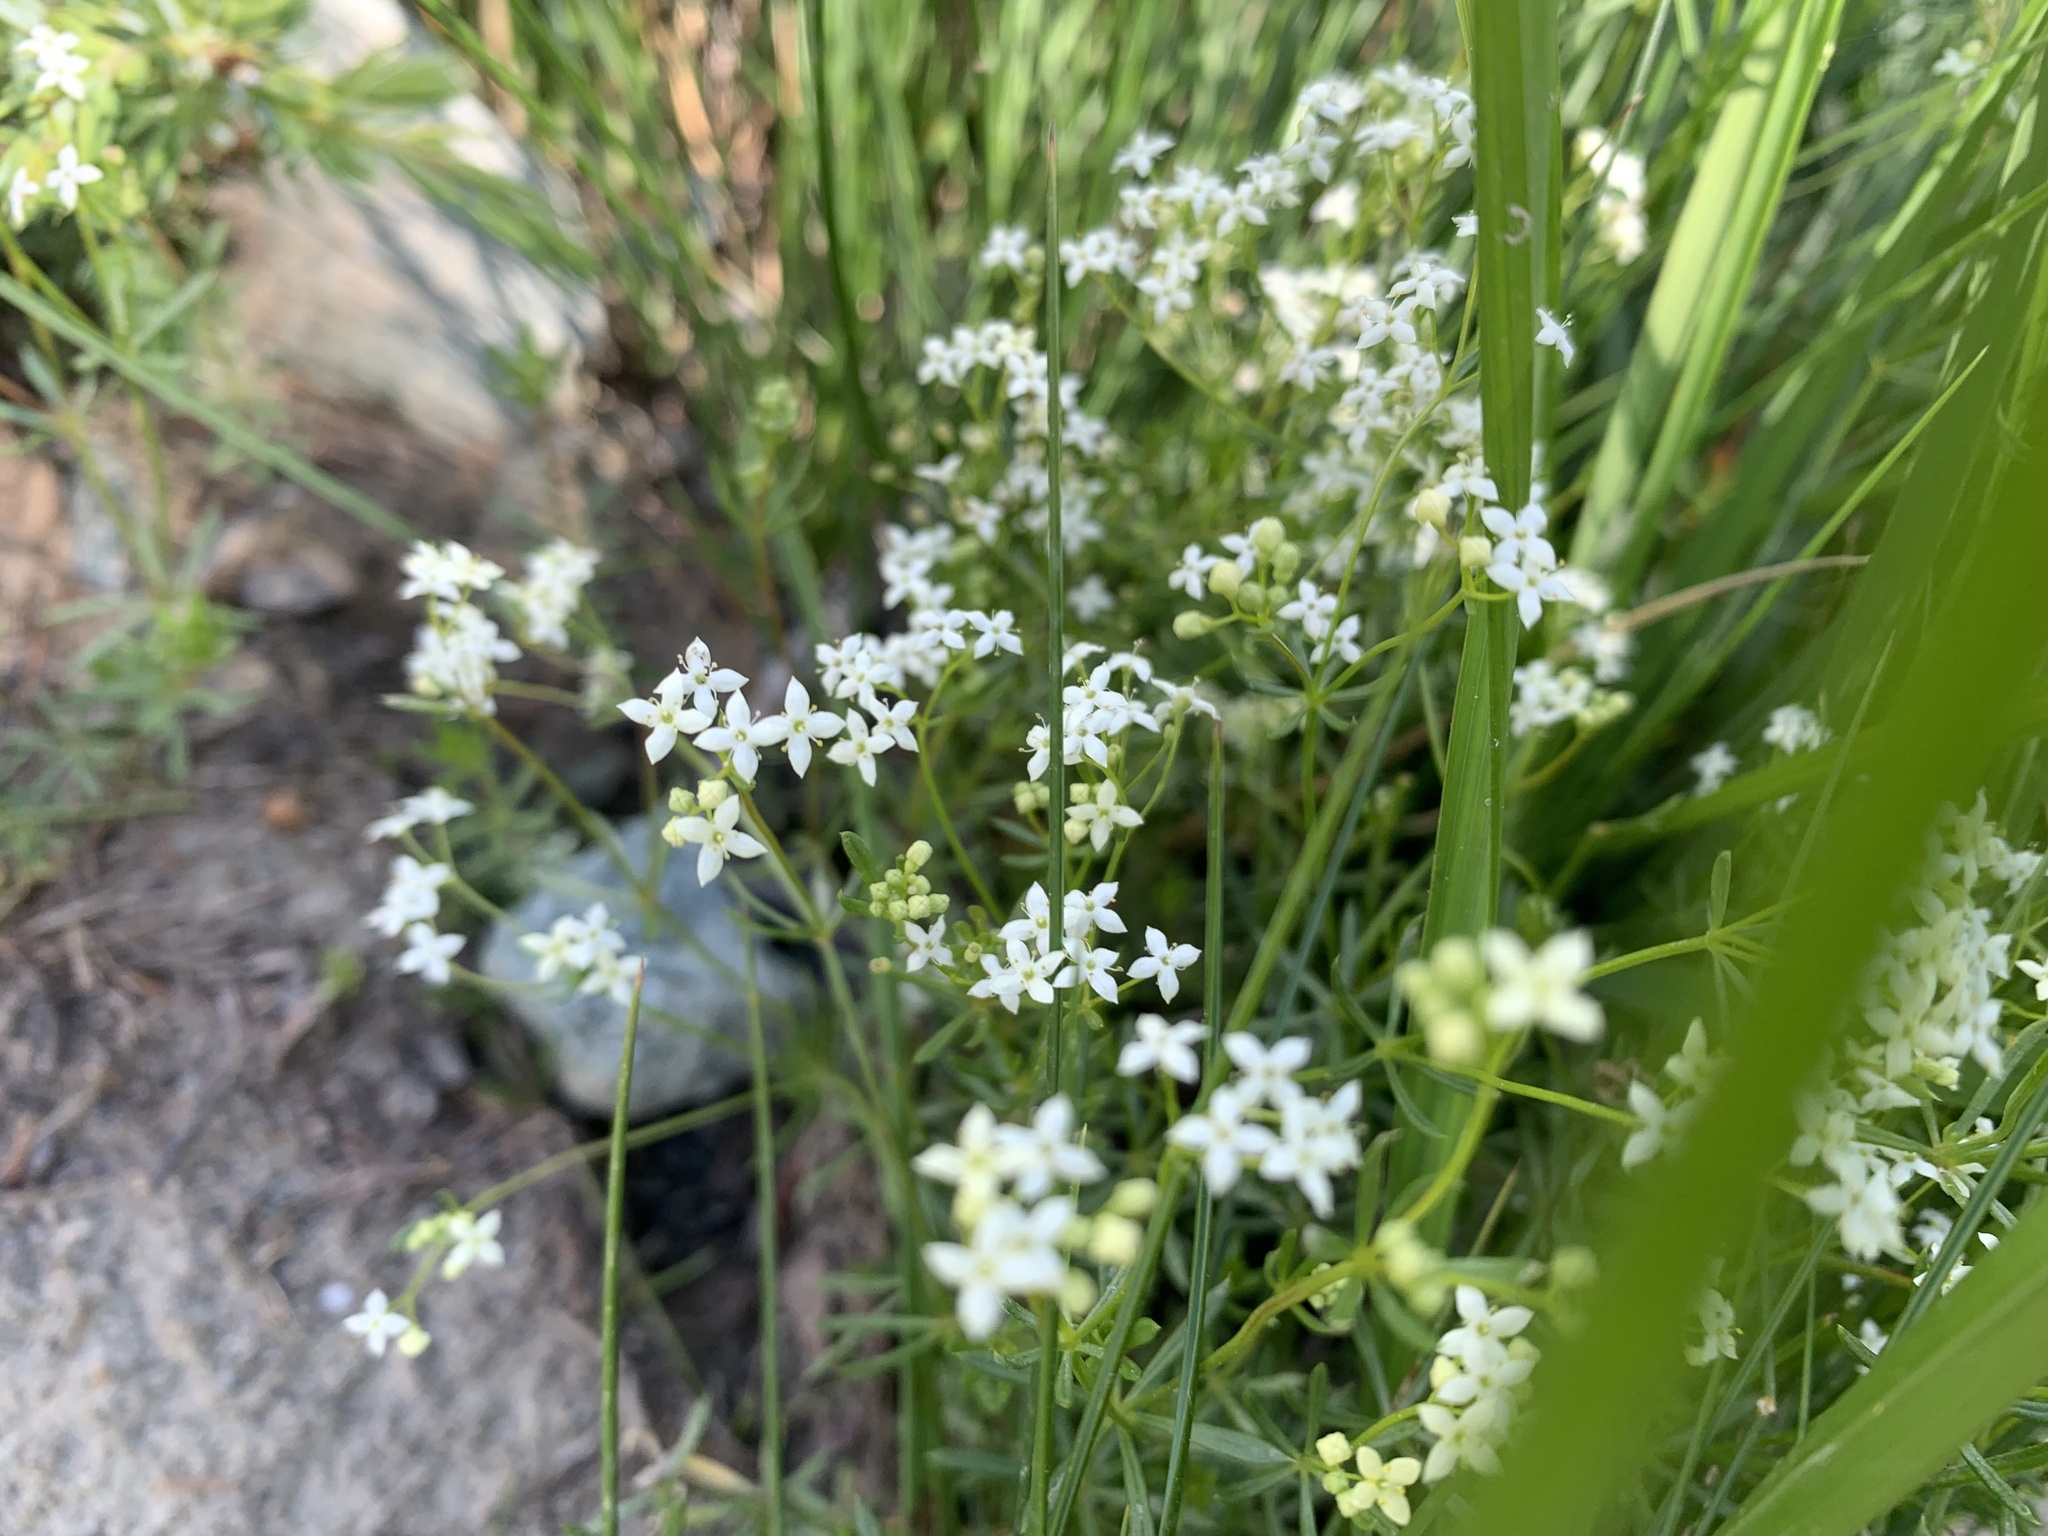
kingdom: Plantae
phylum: Tracheophyta
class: Magnoliopsida
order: Gentianales
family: Rubiaceae
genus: Galium
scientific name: Galium
